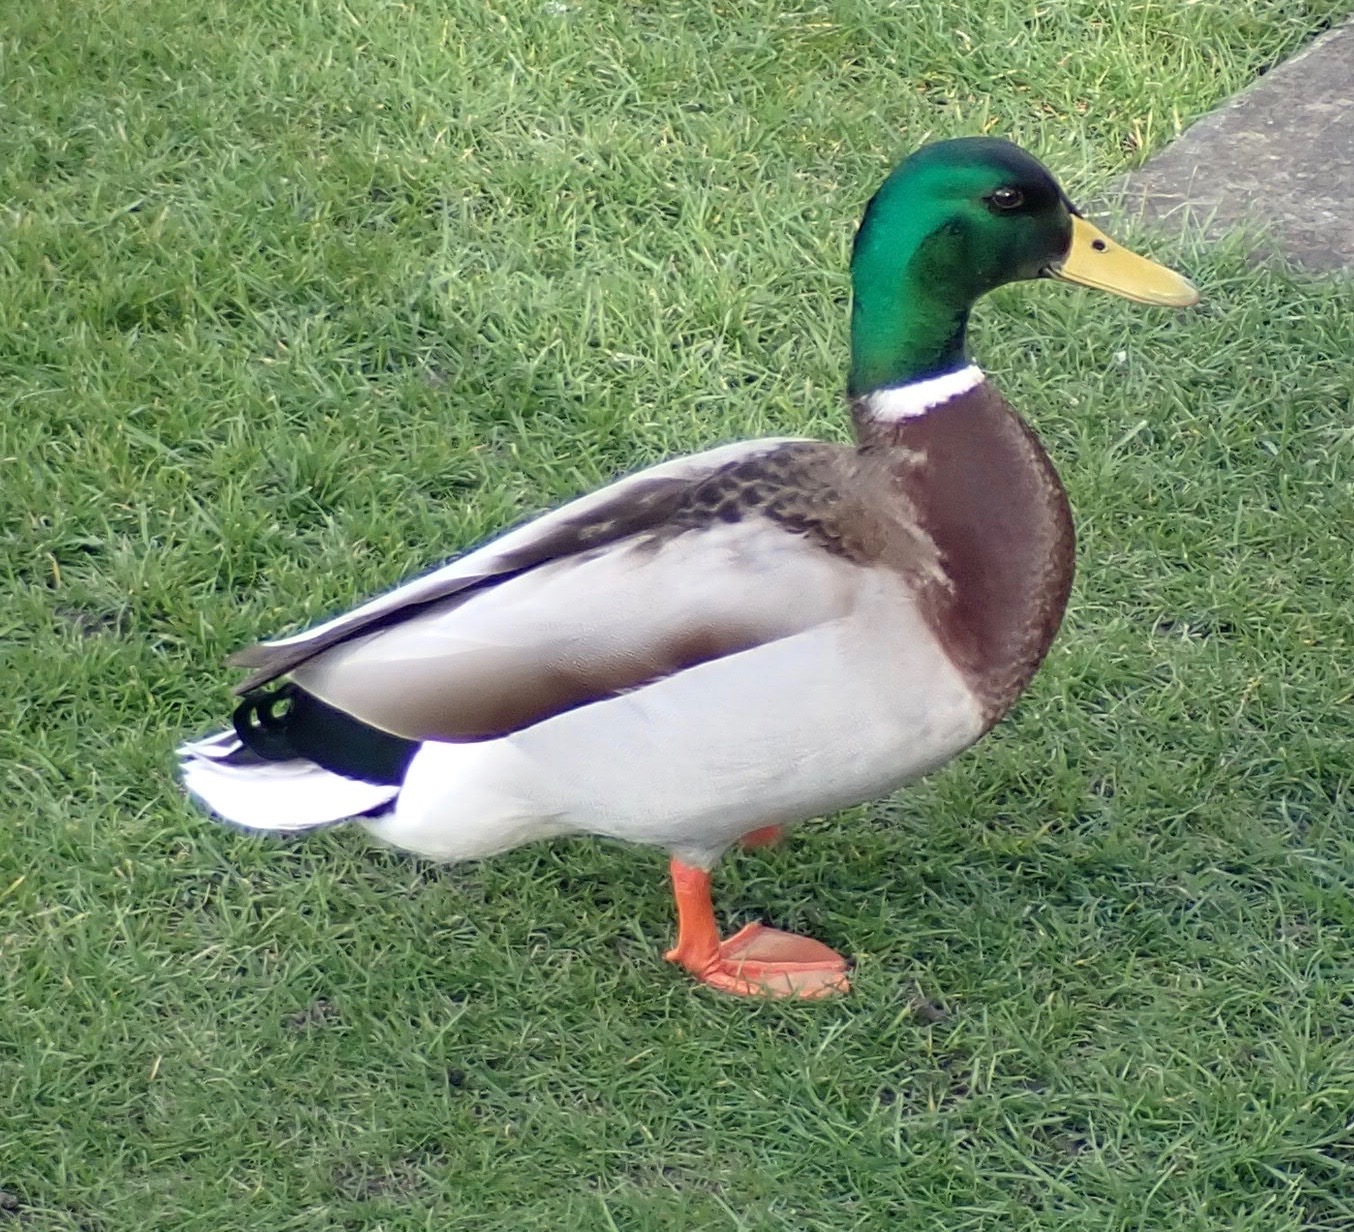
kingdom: Animalia
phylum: Chordata
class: Aves
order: Anseriformes
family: Anatidae
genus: Anas
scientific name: Anas platyrhynchos
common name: Mallard
